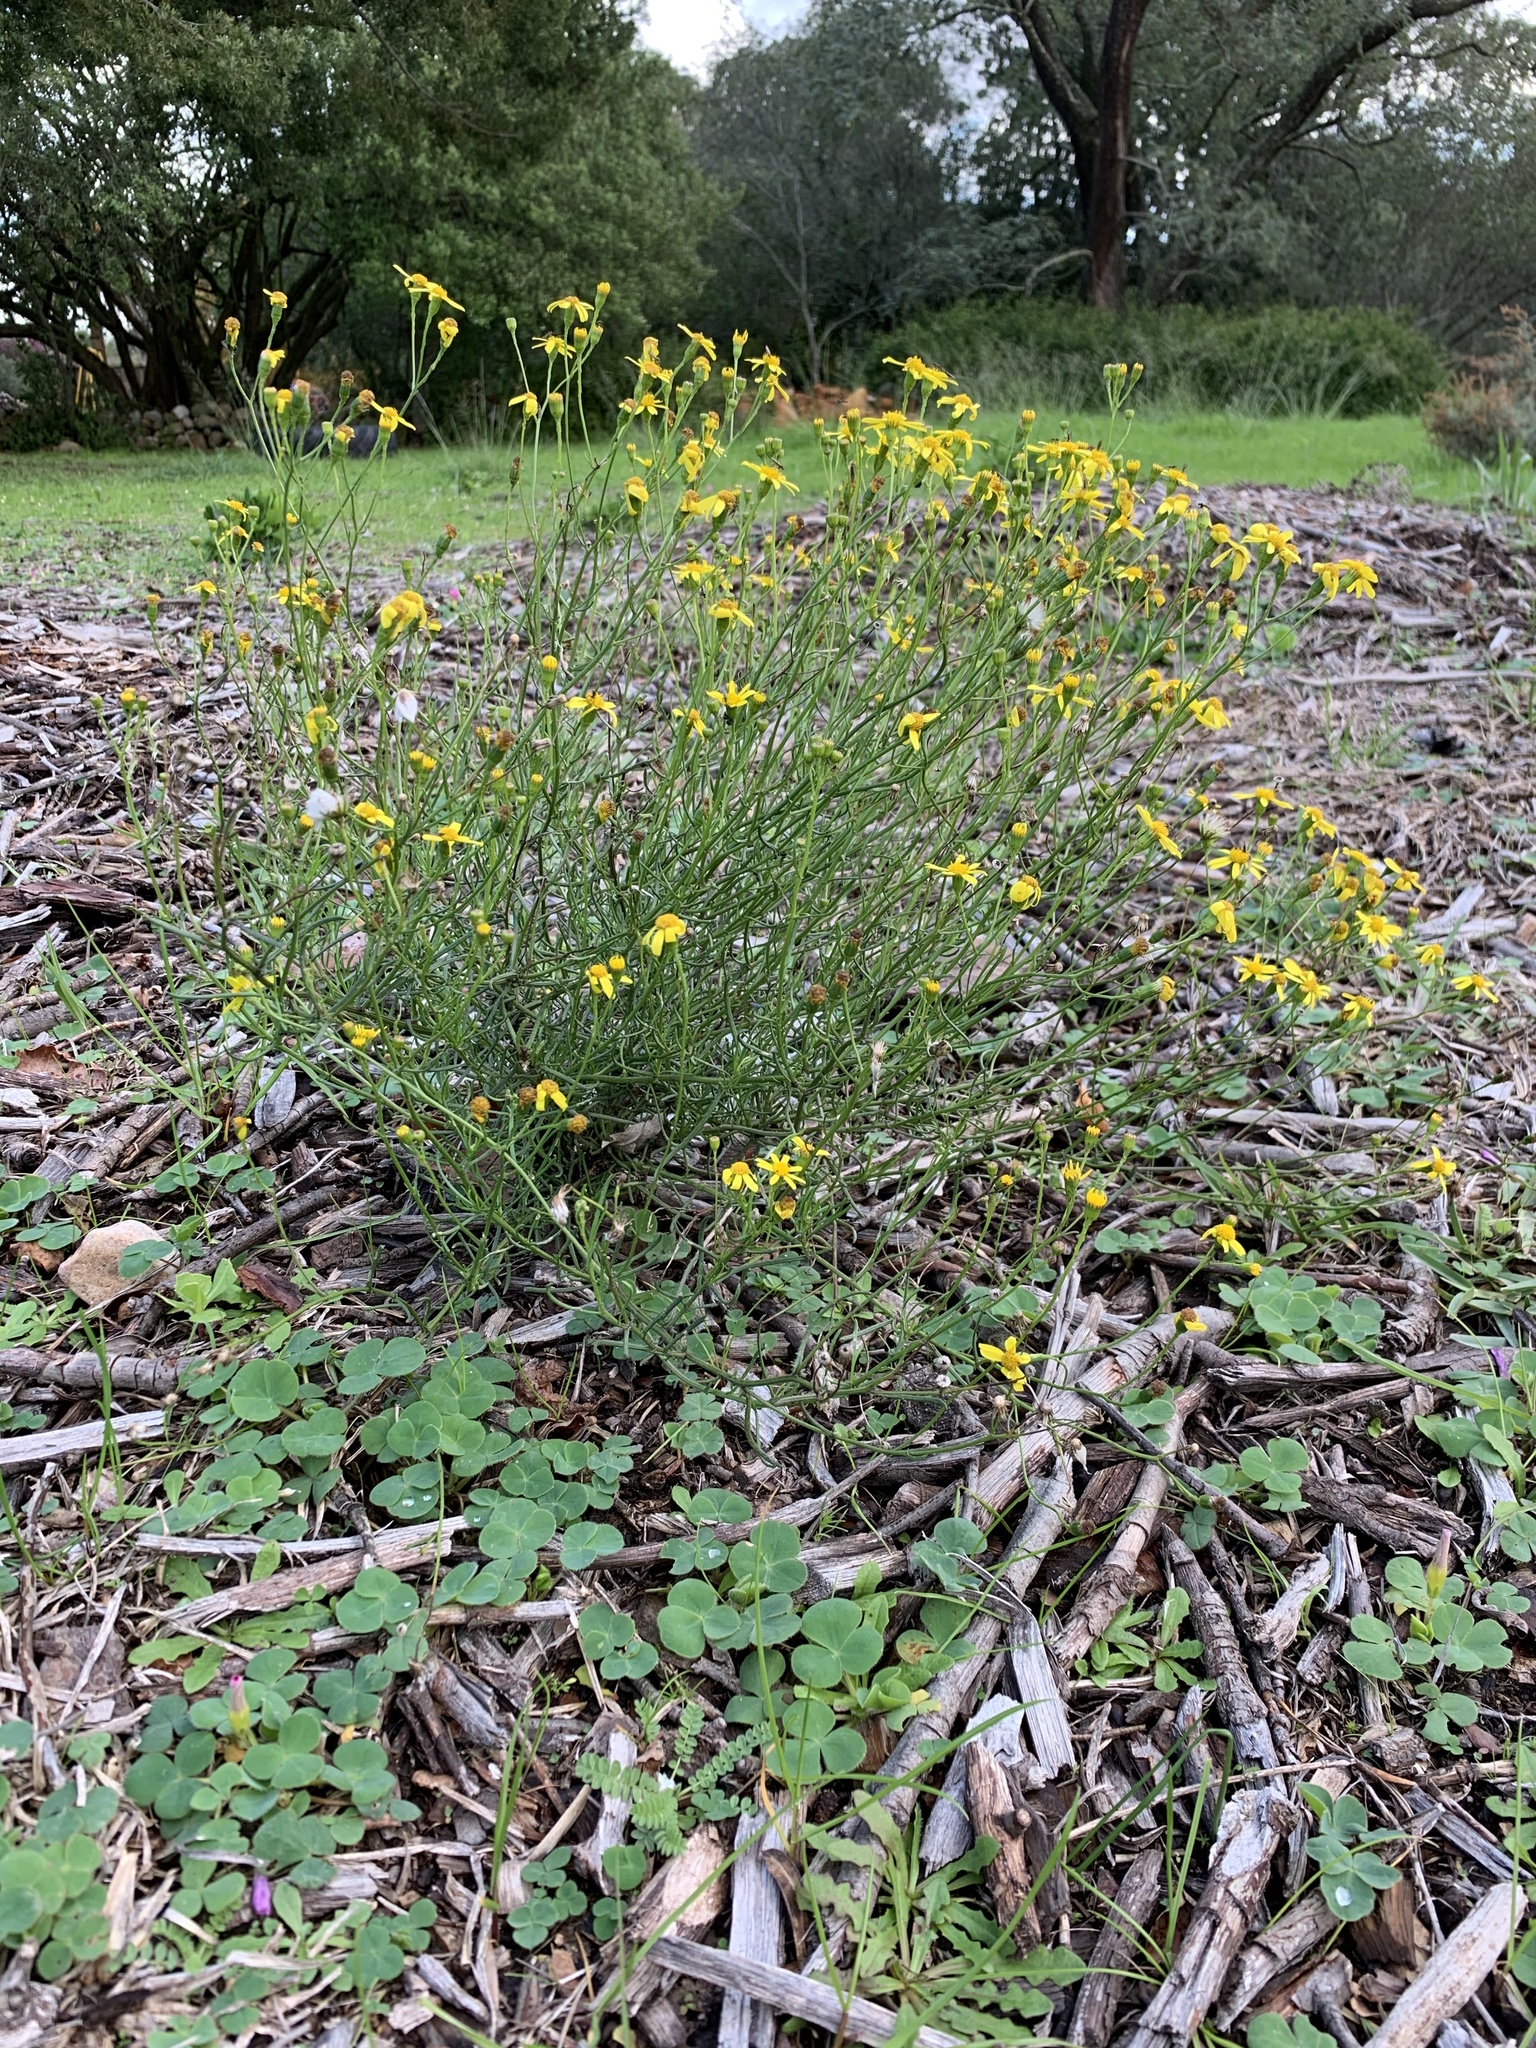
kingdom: Plantae
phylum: Tracheophyta
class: Magnoliopsida
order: Asterales
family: Asteraceae
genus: Senecio
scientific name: Senecio burchellii
